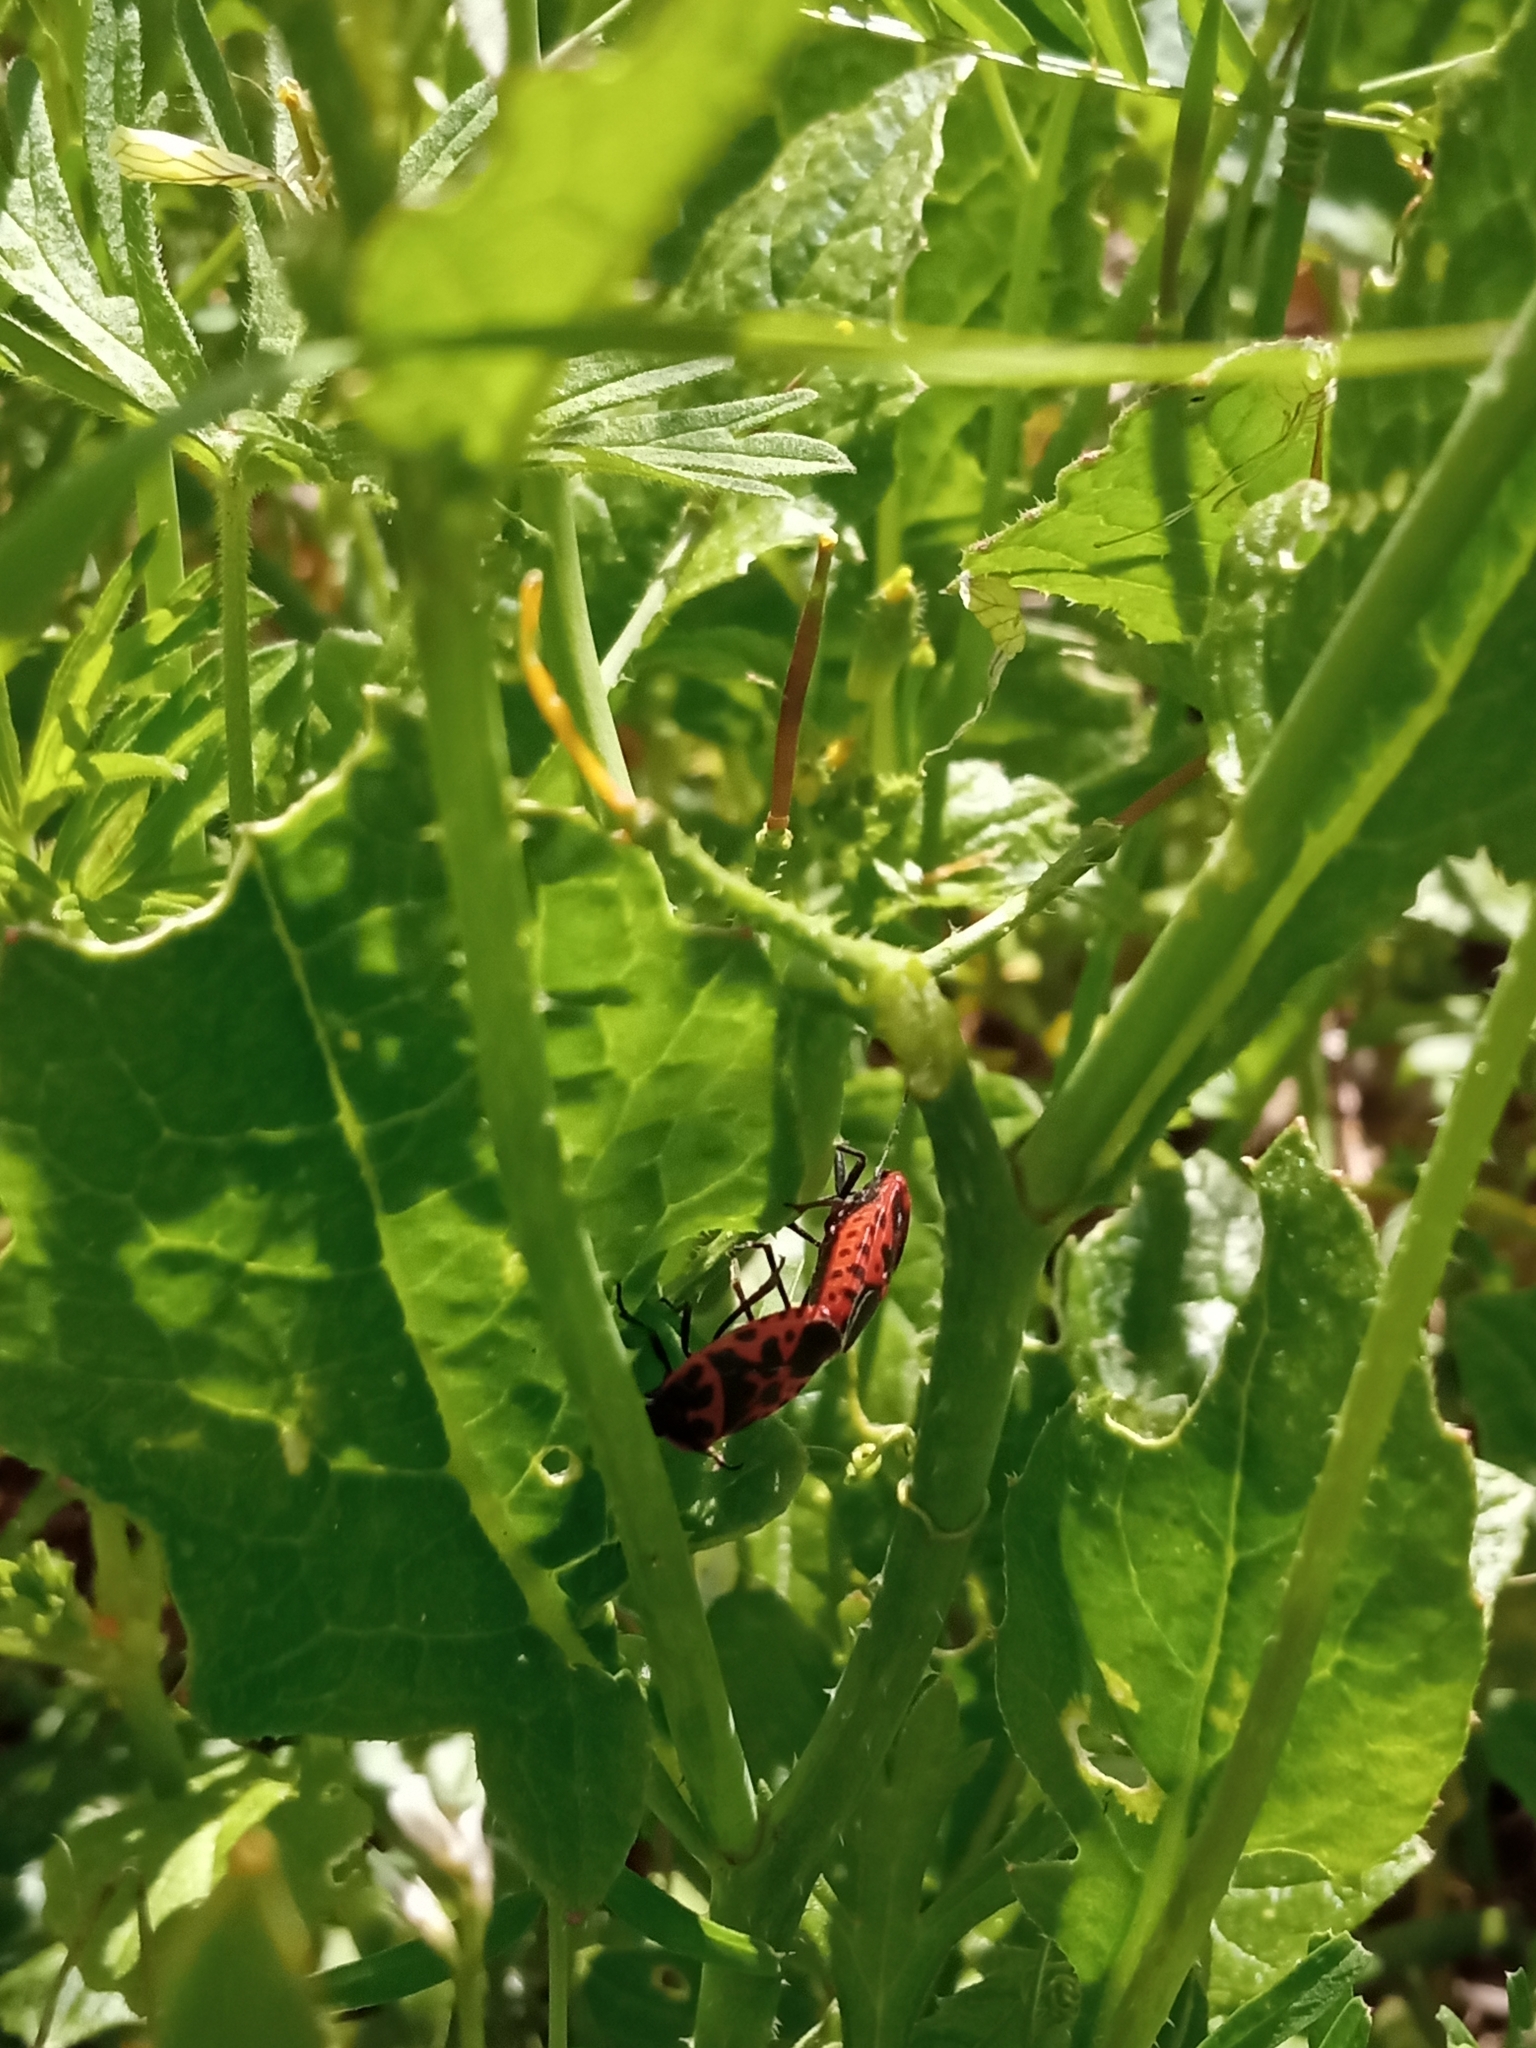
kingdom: Animalia
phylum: Arthropoda
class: Insecta
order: Hemiptera
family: Pentatomidae
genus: Eurydema
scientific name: Eurydema ventralis
